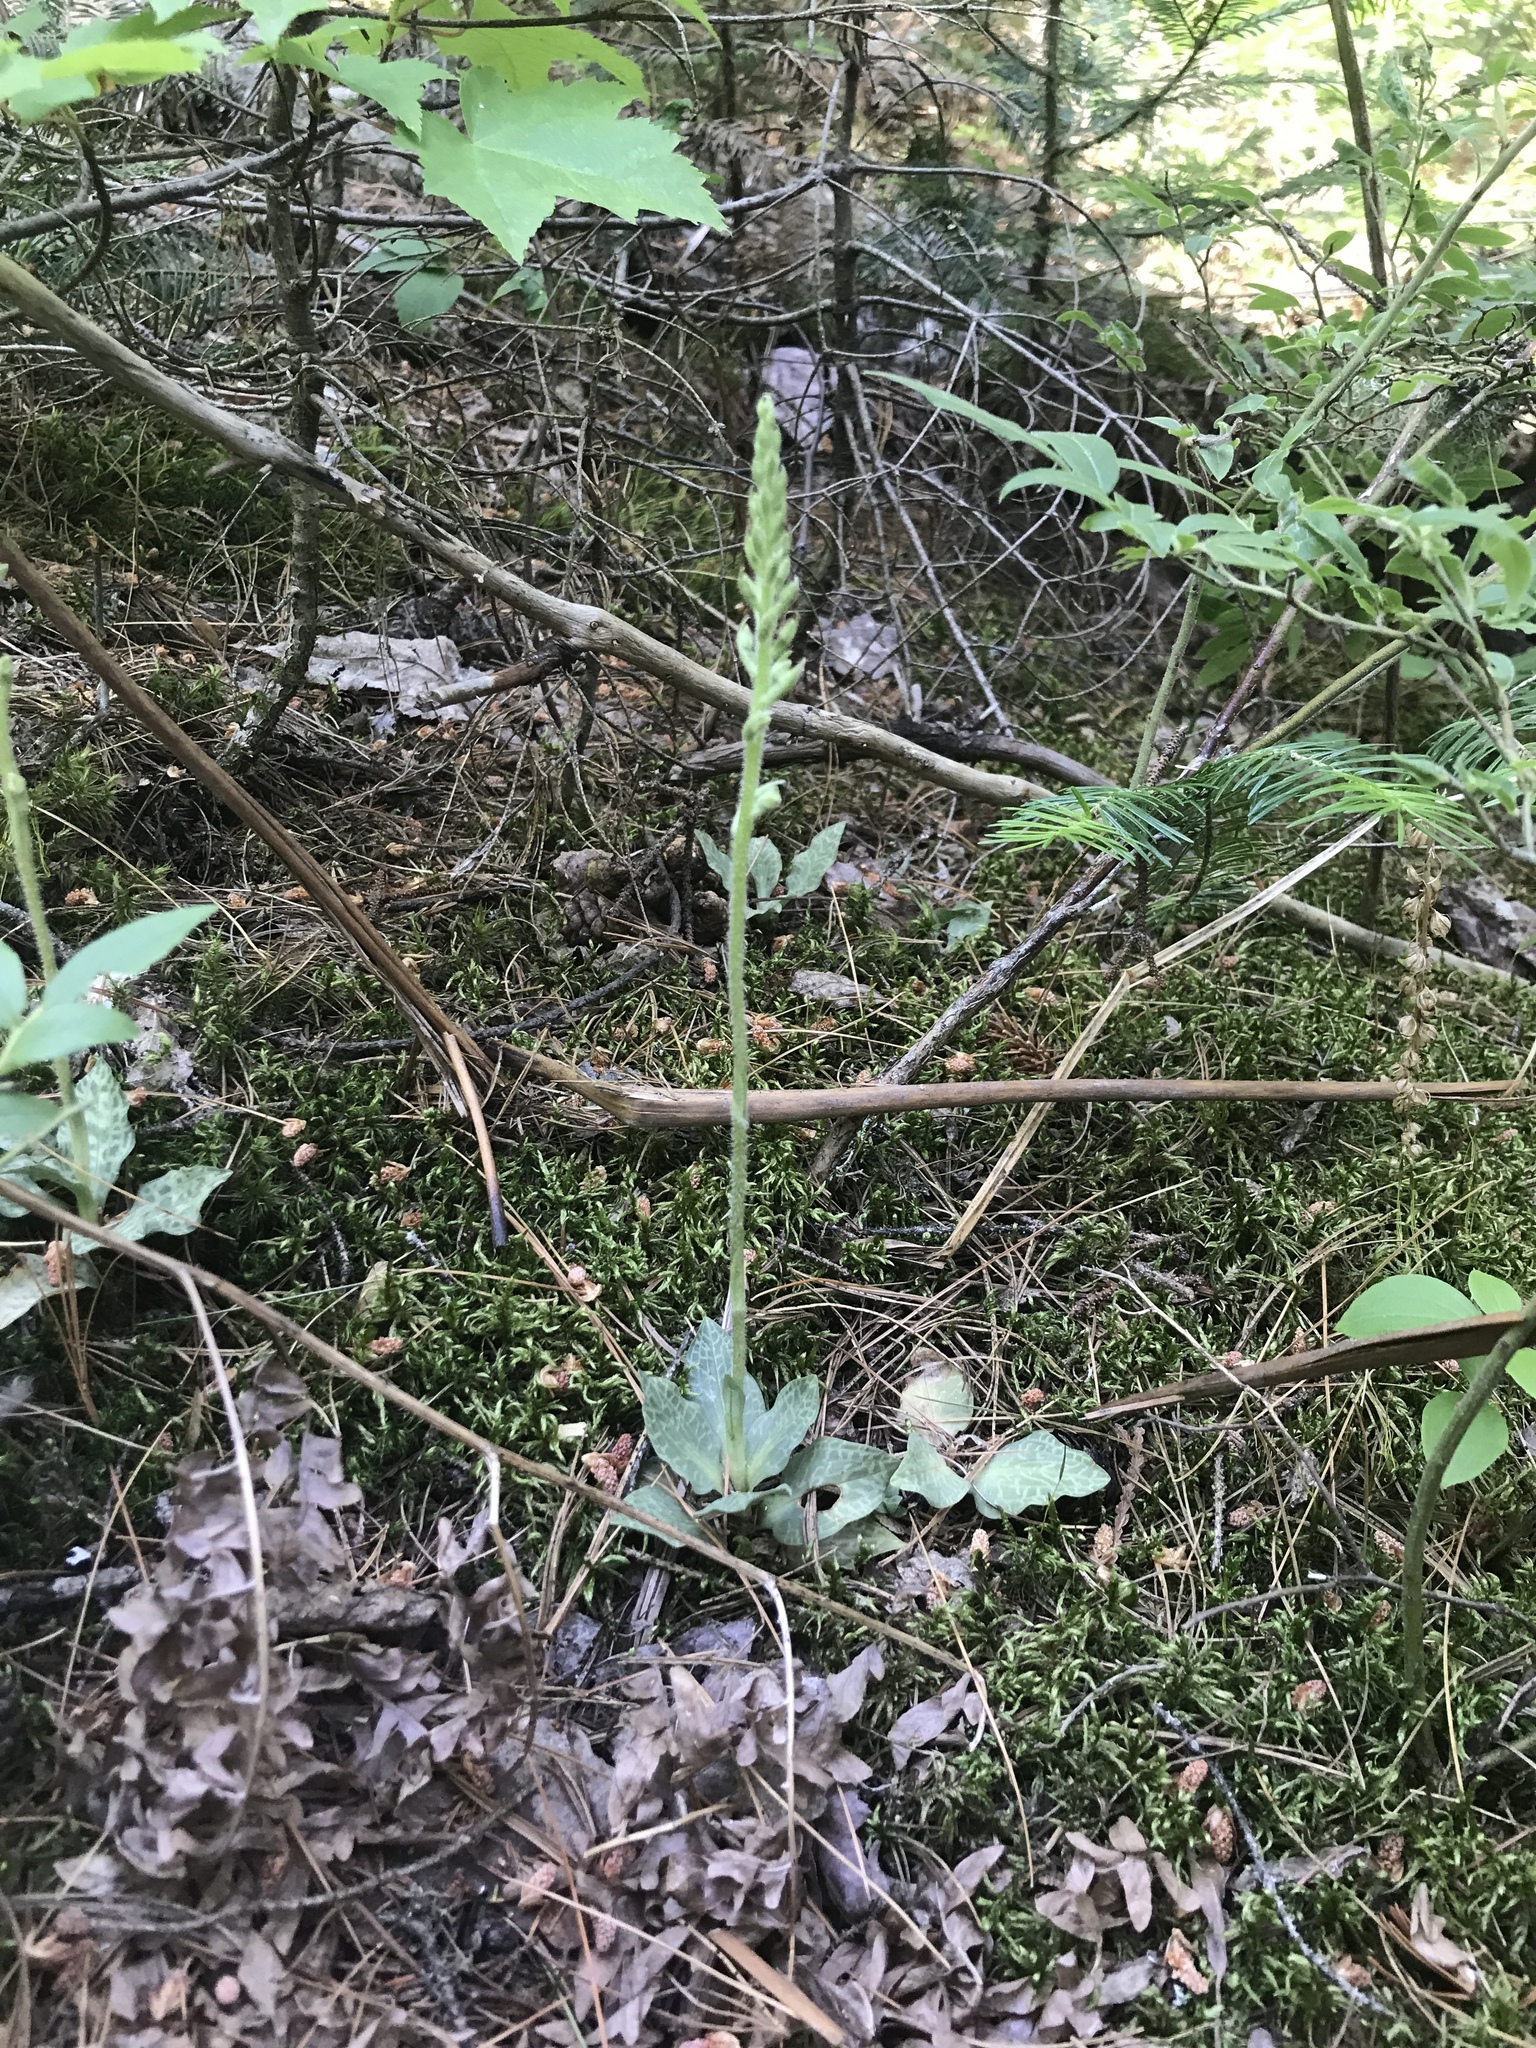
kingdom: Plantae
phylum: Tracheophyta
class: Liliopsida
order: Asparagales
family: Orchidaceae
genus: Goodyera
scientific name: Goodyera tesselata
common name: Checkered rattlesnake-plantain
